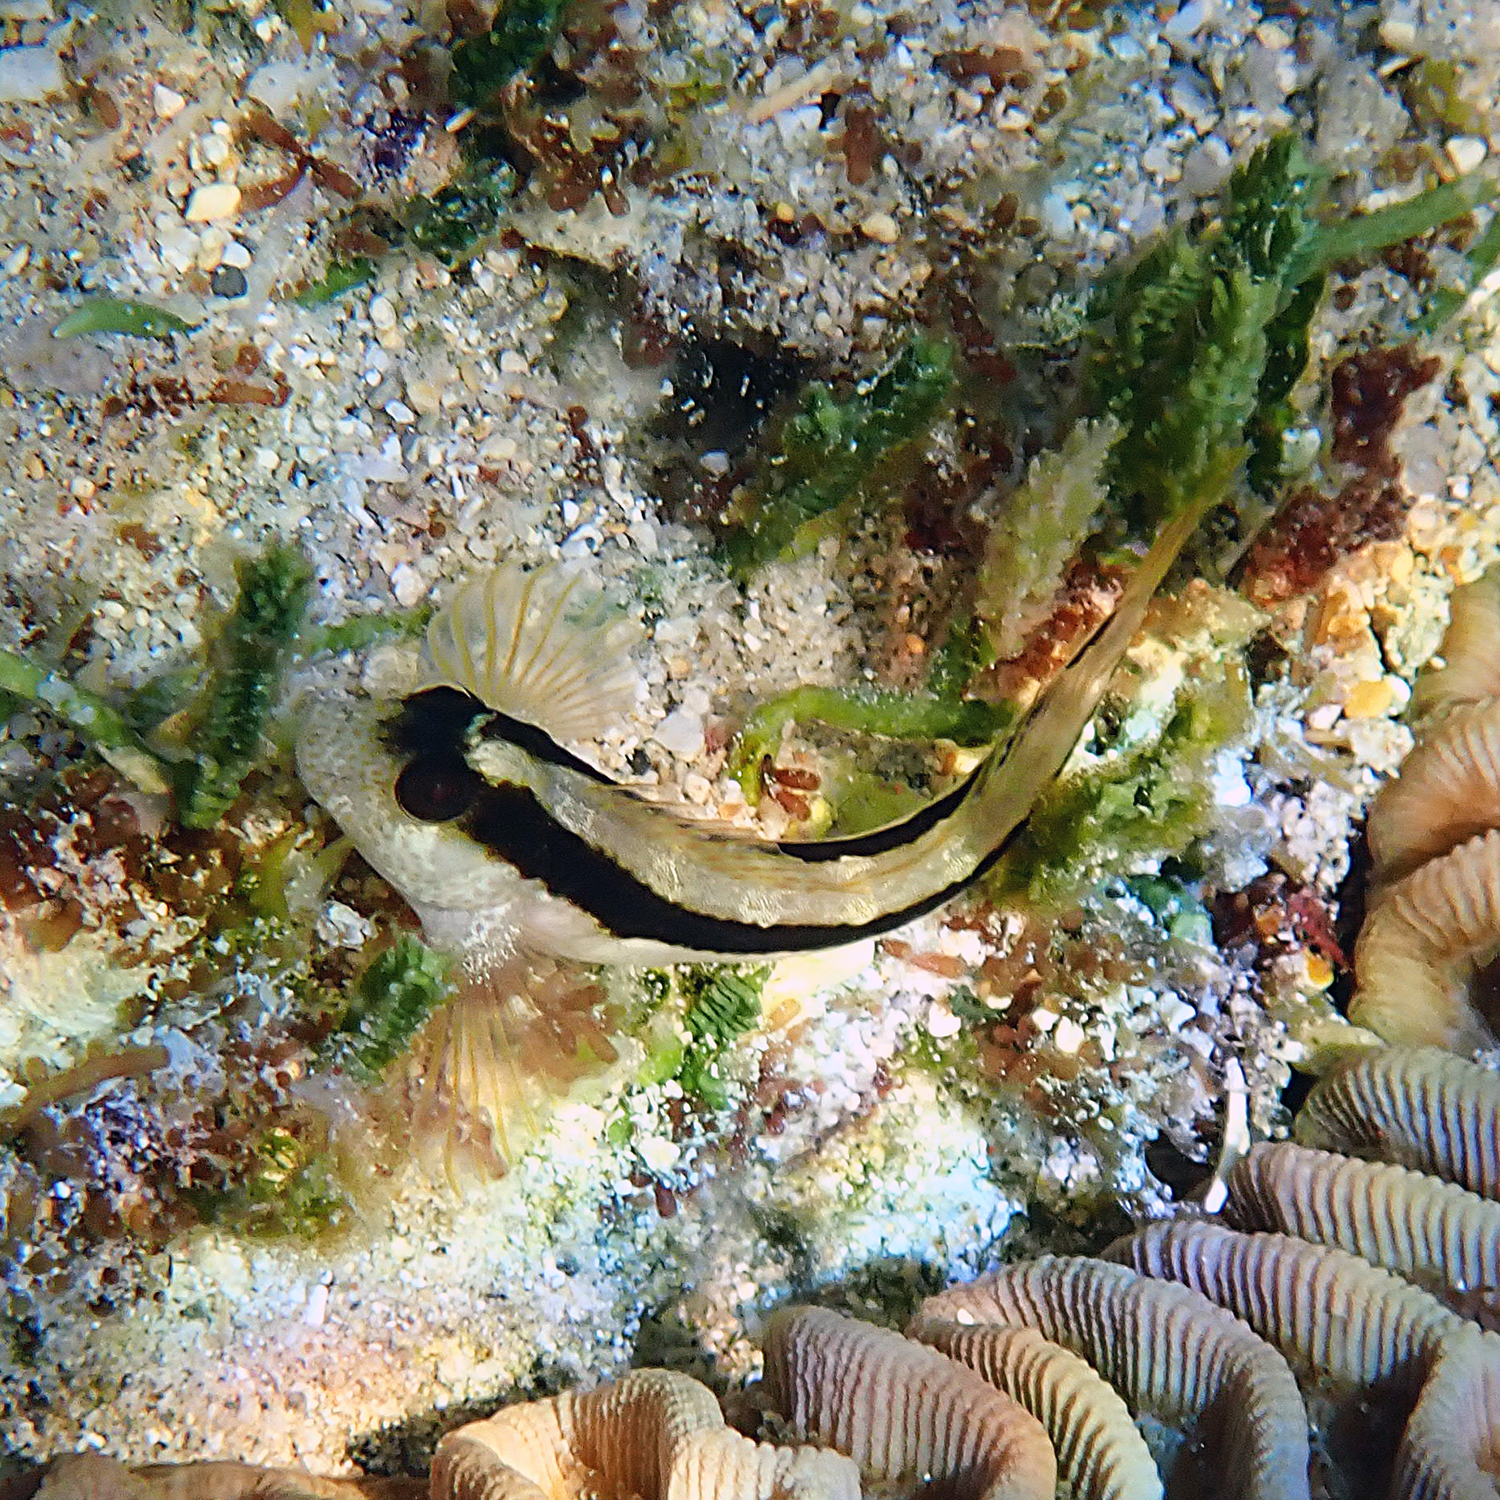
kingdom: Animalia
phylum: Chordata
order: Perciformes
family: Blenniidae
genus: Parablennius
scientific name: Parablennius serratolineatus
